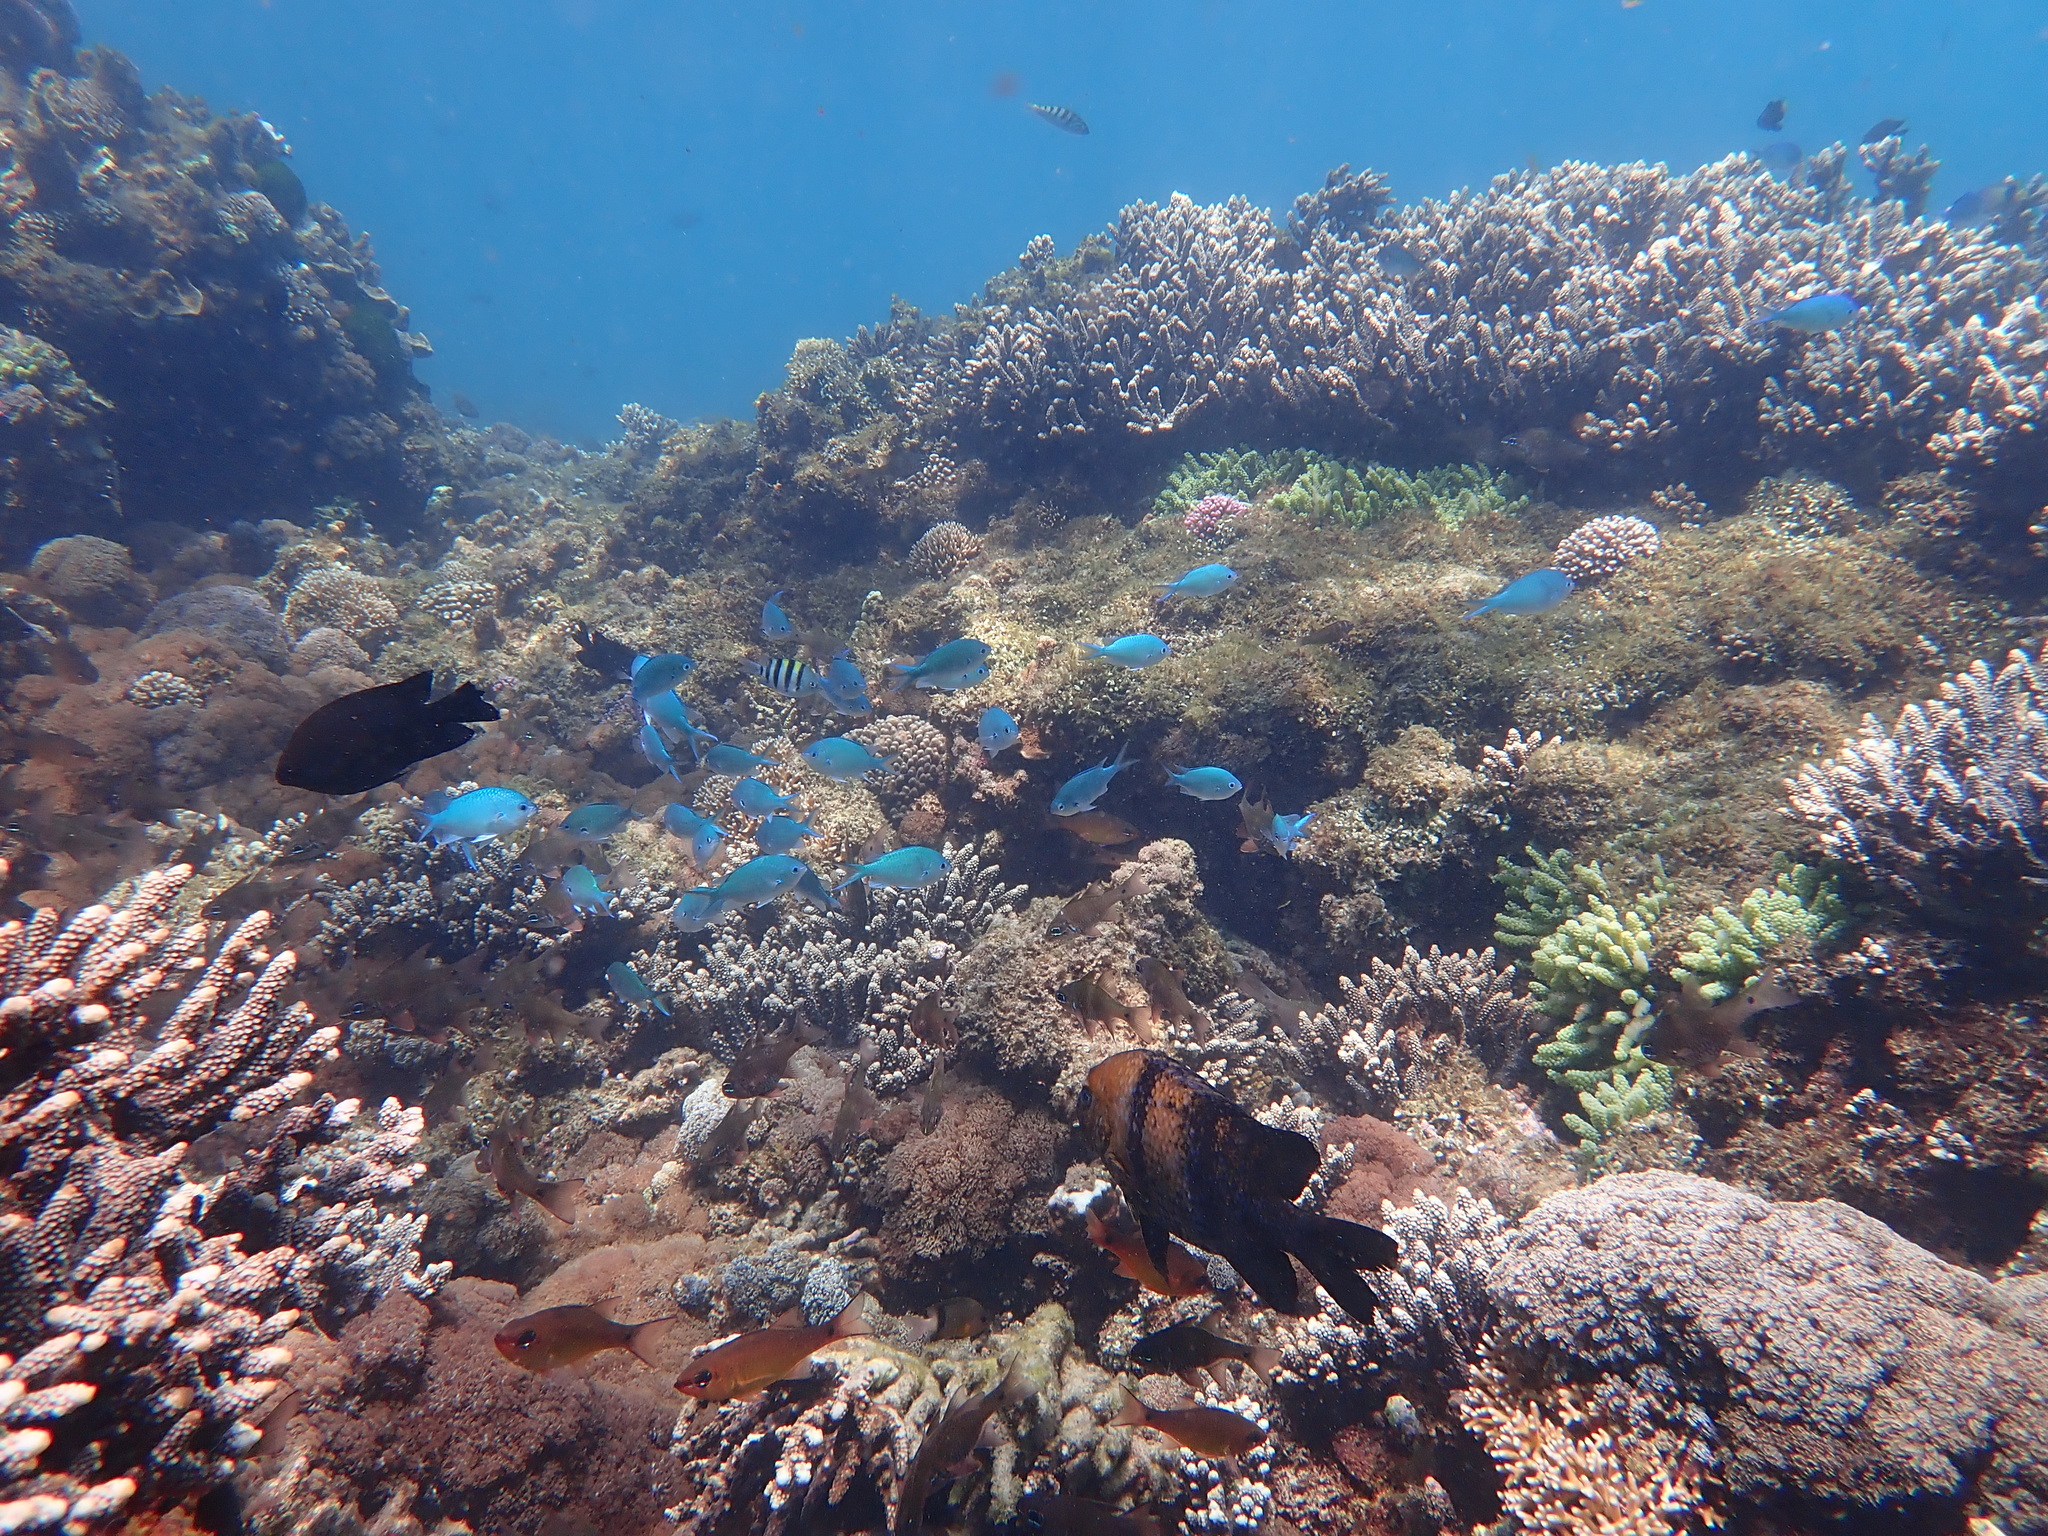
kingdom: Animalia
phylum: Chordata
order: Perciformes
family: Pomacentridae
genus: Chromis
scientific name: Chromis atripectoralis
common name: Black-axil chromis
